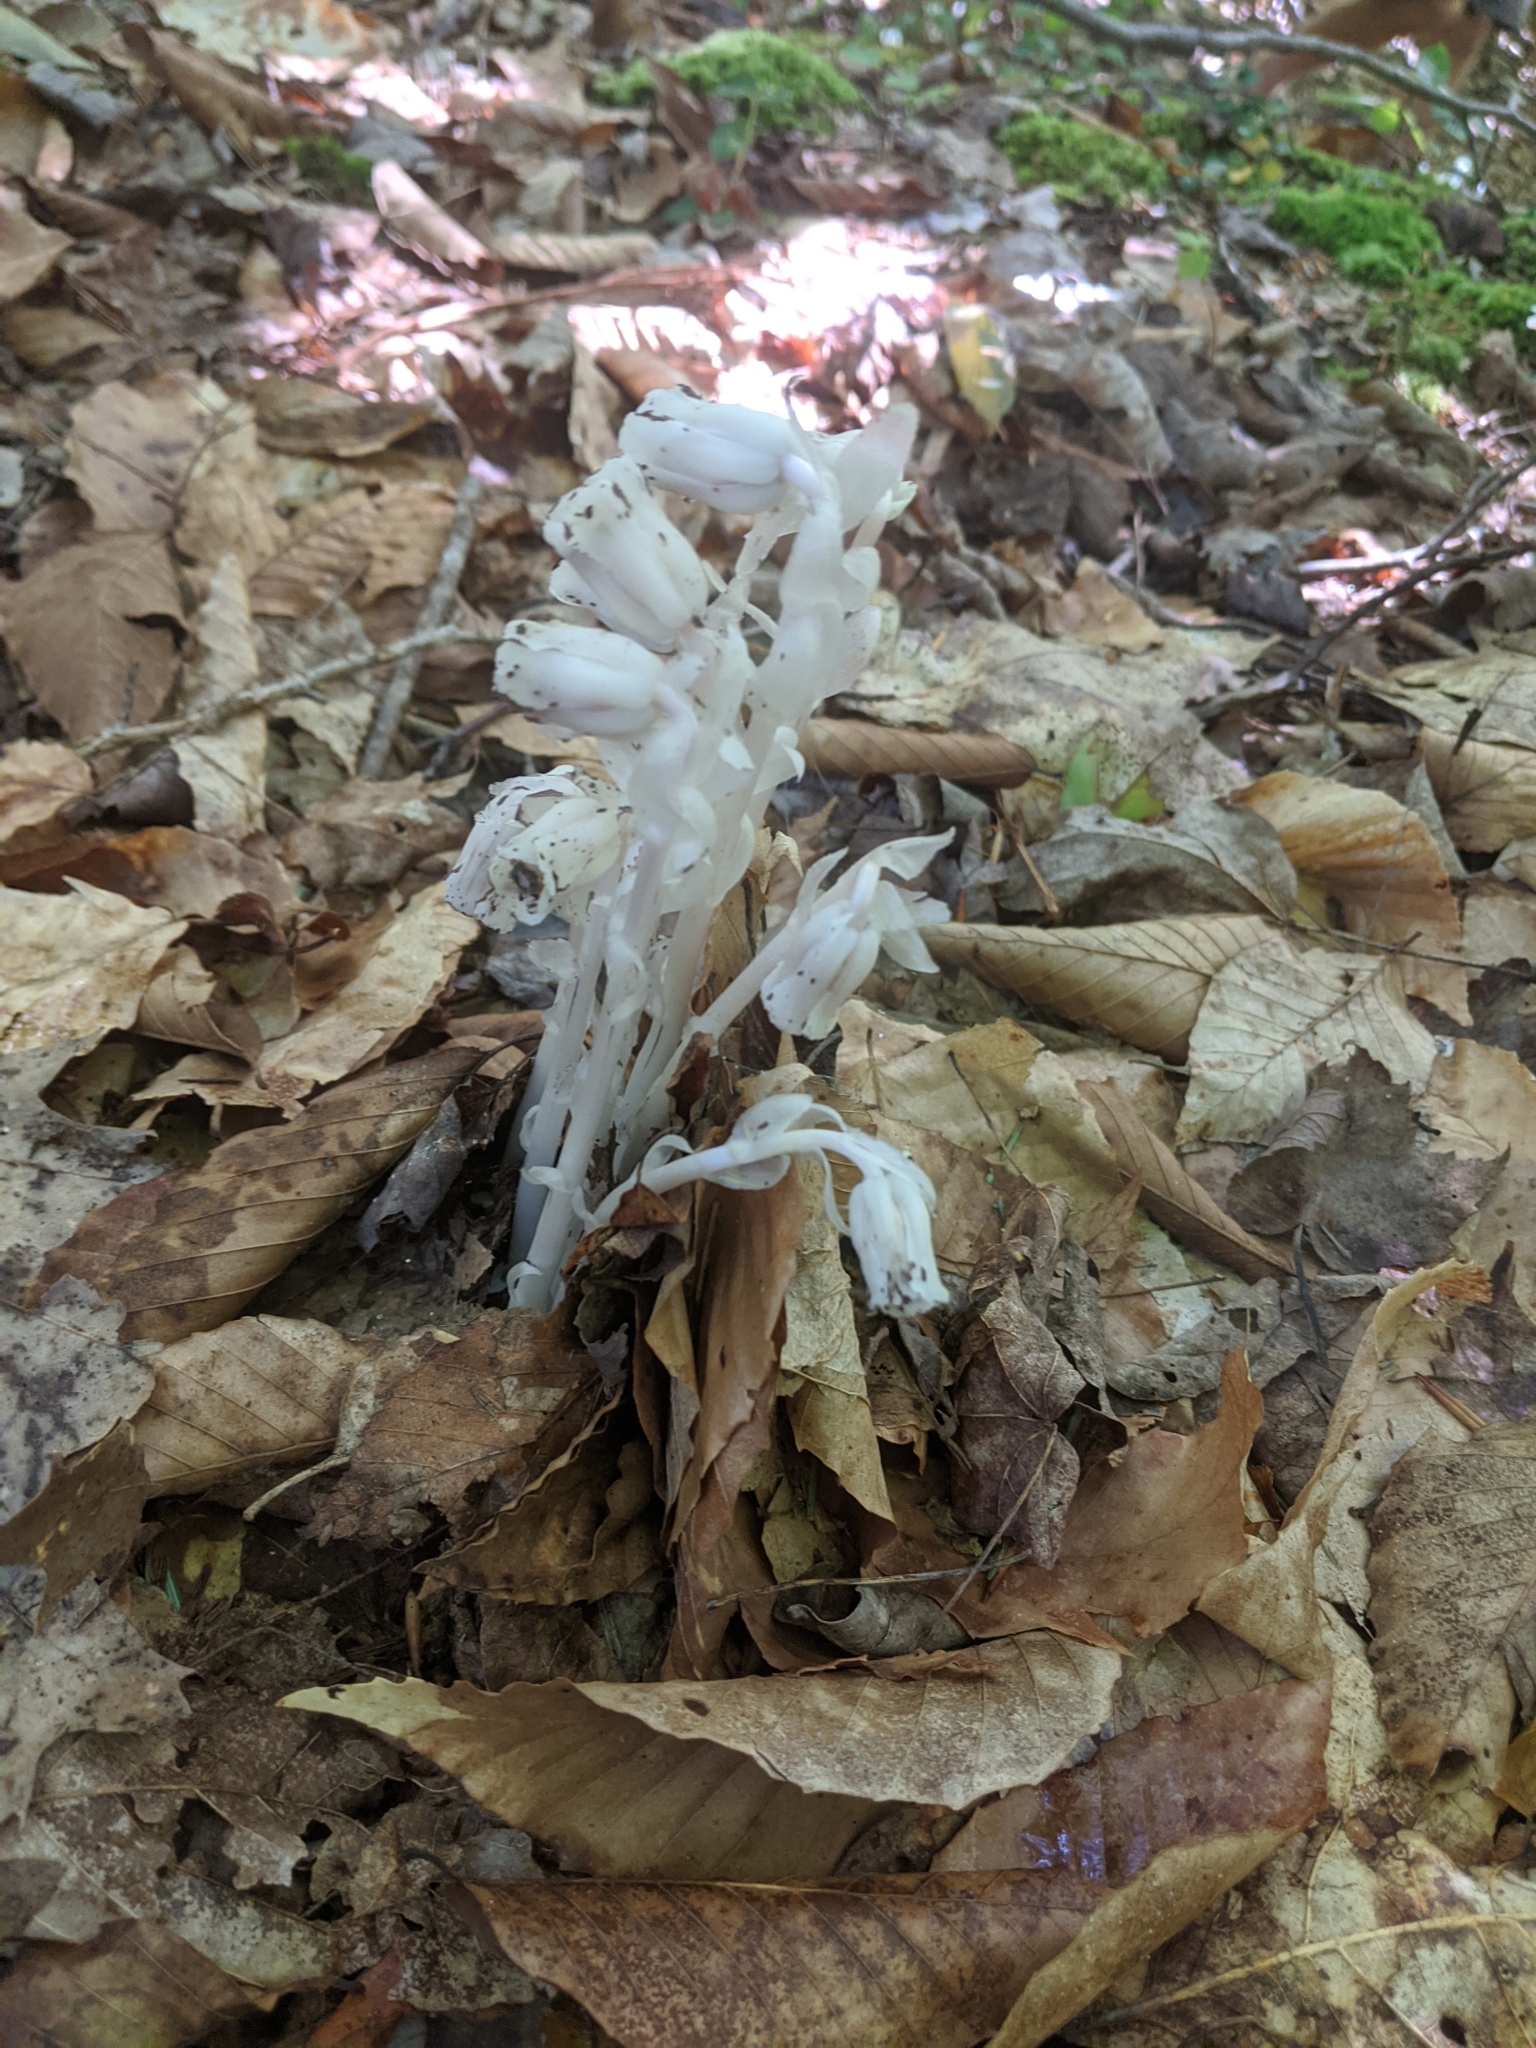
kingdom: Plantae
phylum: Tracheophyta
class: Magnoliopsida
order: Ericales
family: Ericaceae
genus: Monotropa
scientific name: Monotropa uniflora
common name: Convulsion root
